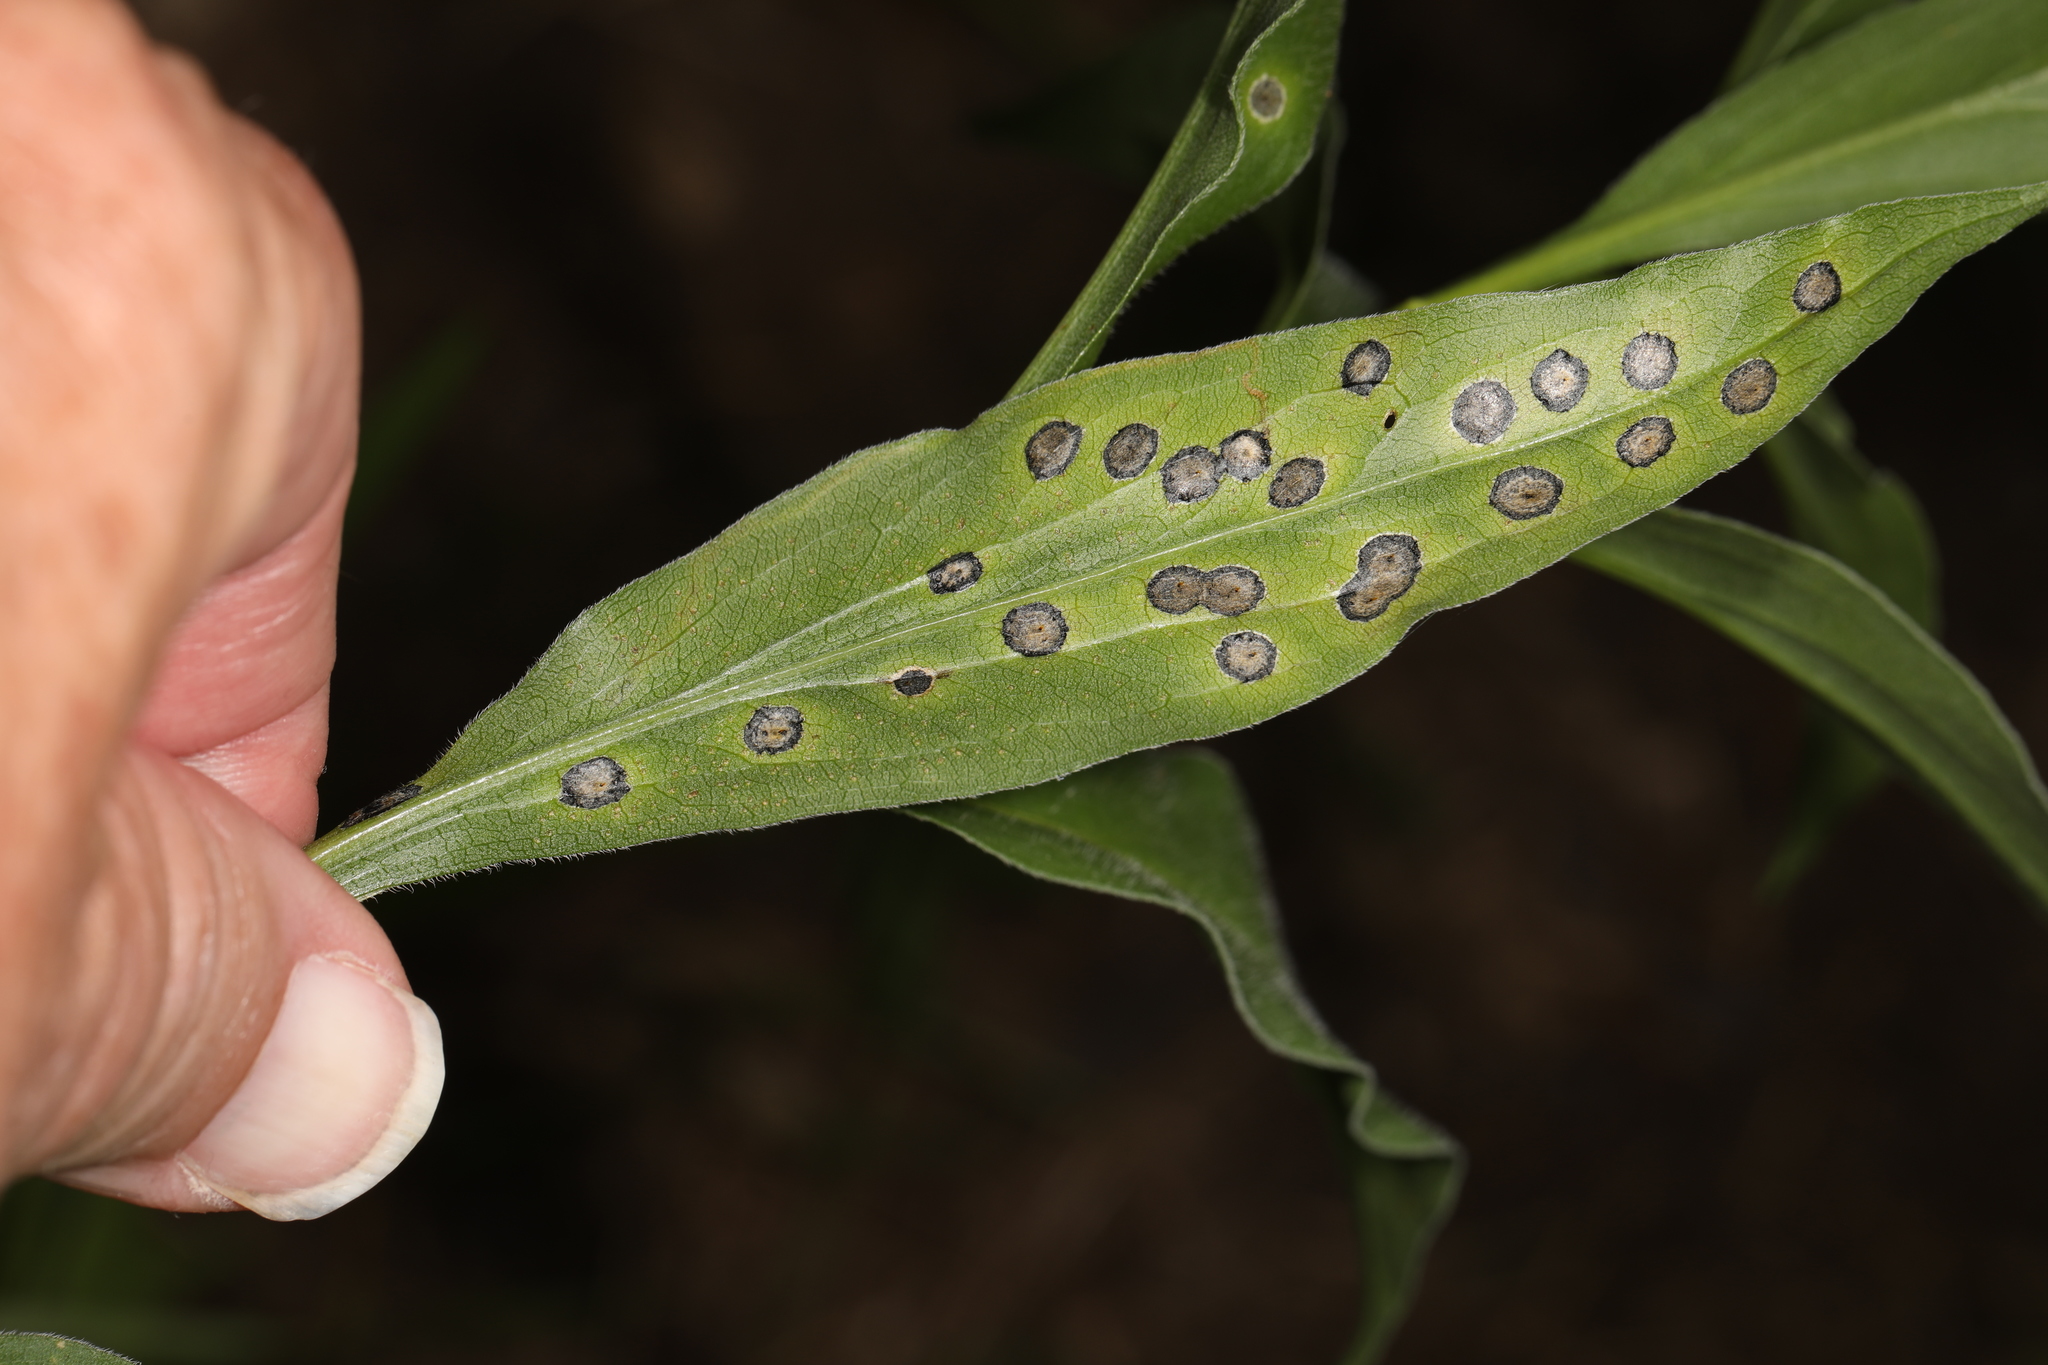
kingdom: Animalia
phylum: Arthropoda
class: Insecta
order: Diptera
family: Cecidomyiidae
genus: Asteromyia
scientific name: Asteromyia carbonifera
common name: Carbonifera goldenrod gall midge
